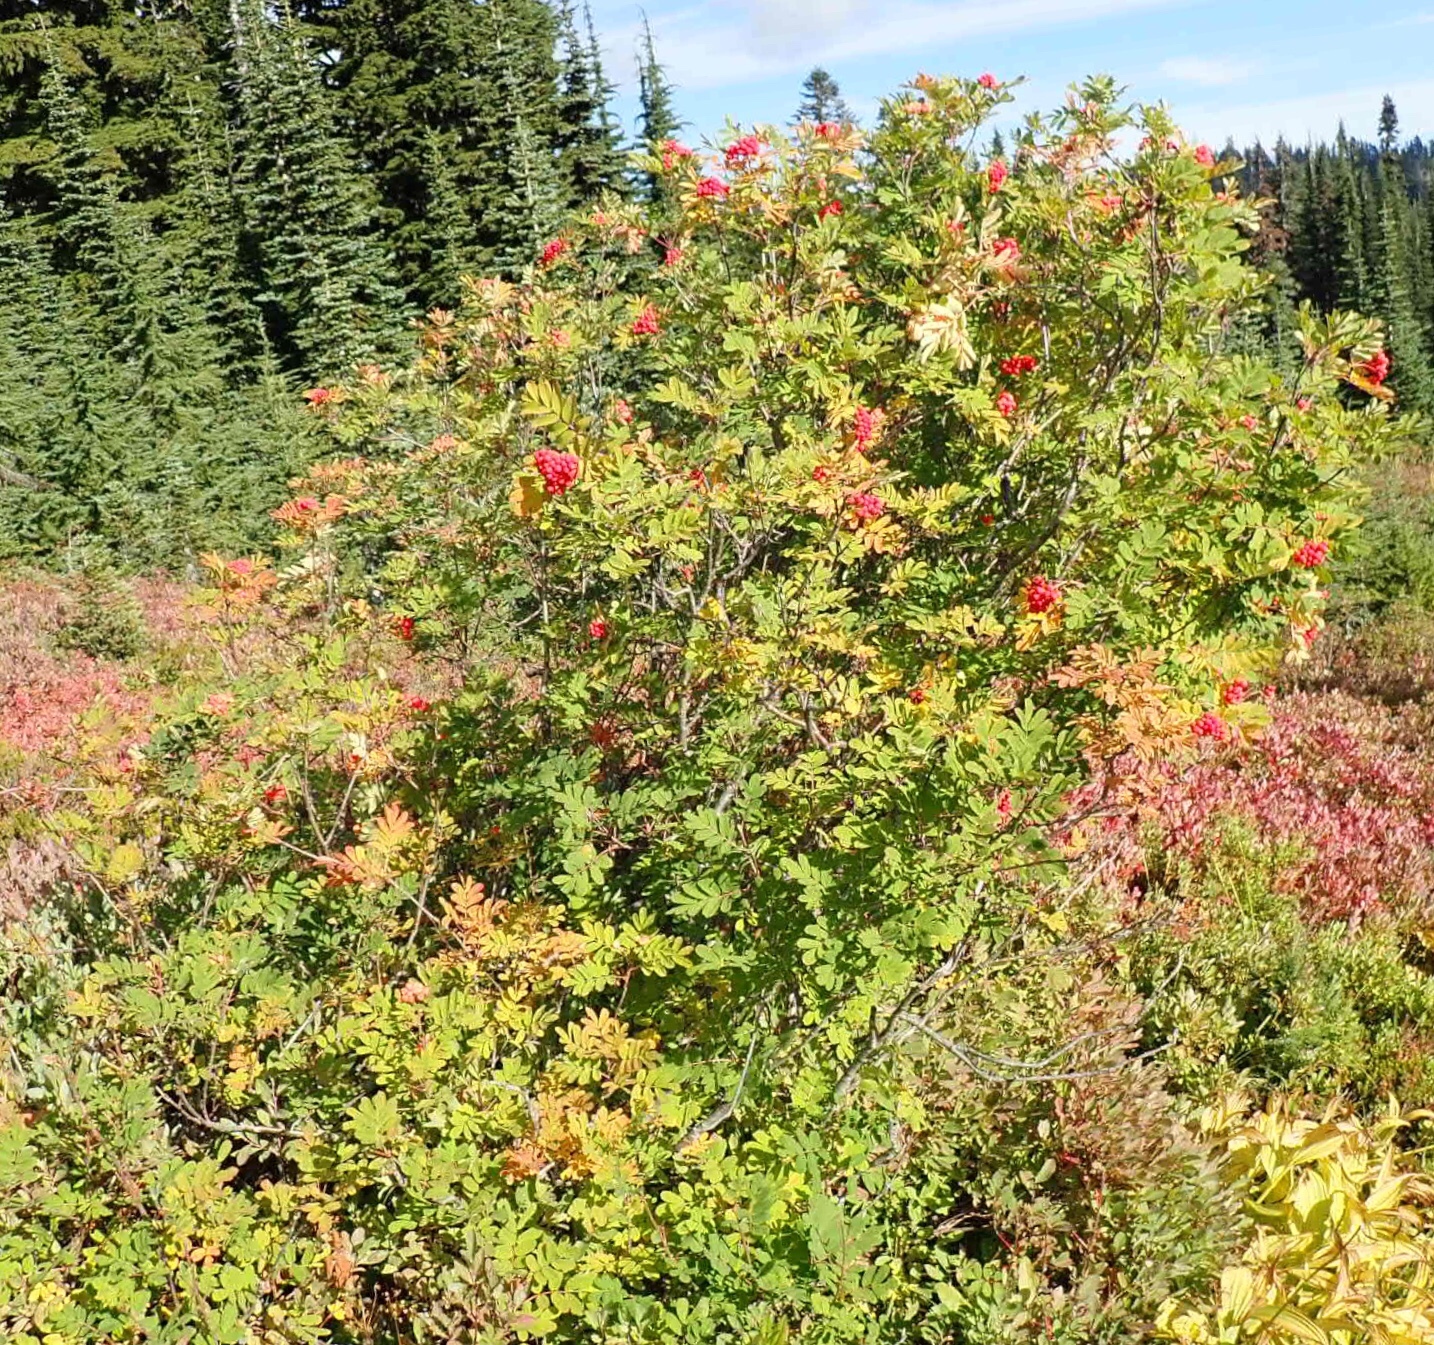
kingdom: Plantae
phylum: Tracheophyta
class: Magnoliopsida
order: Rosales
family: Rosaceae
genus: Sorbus
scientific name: Sorbus sitchensis
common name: Sitka mountain-ash
